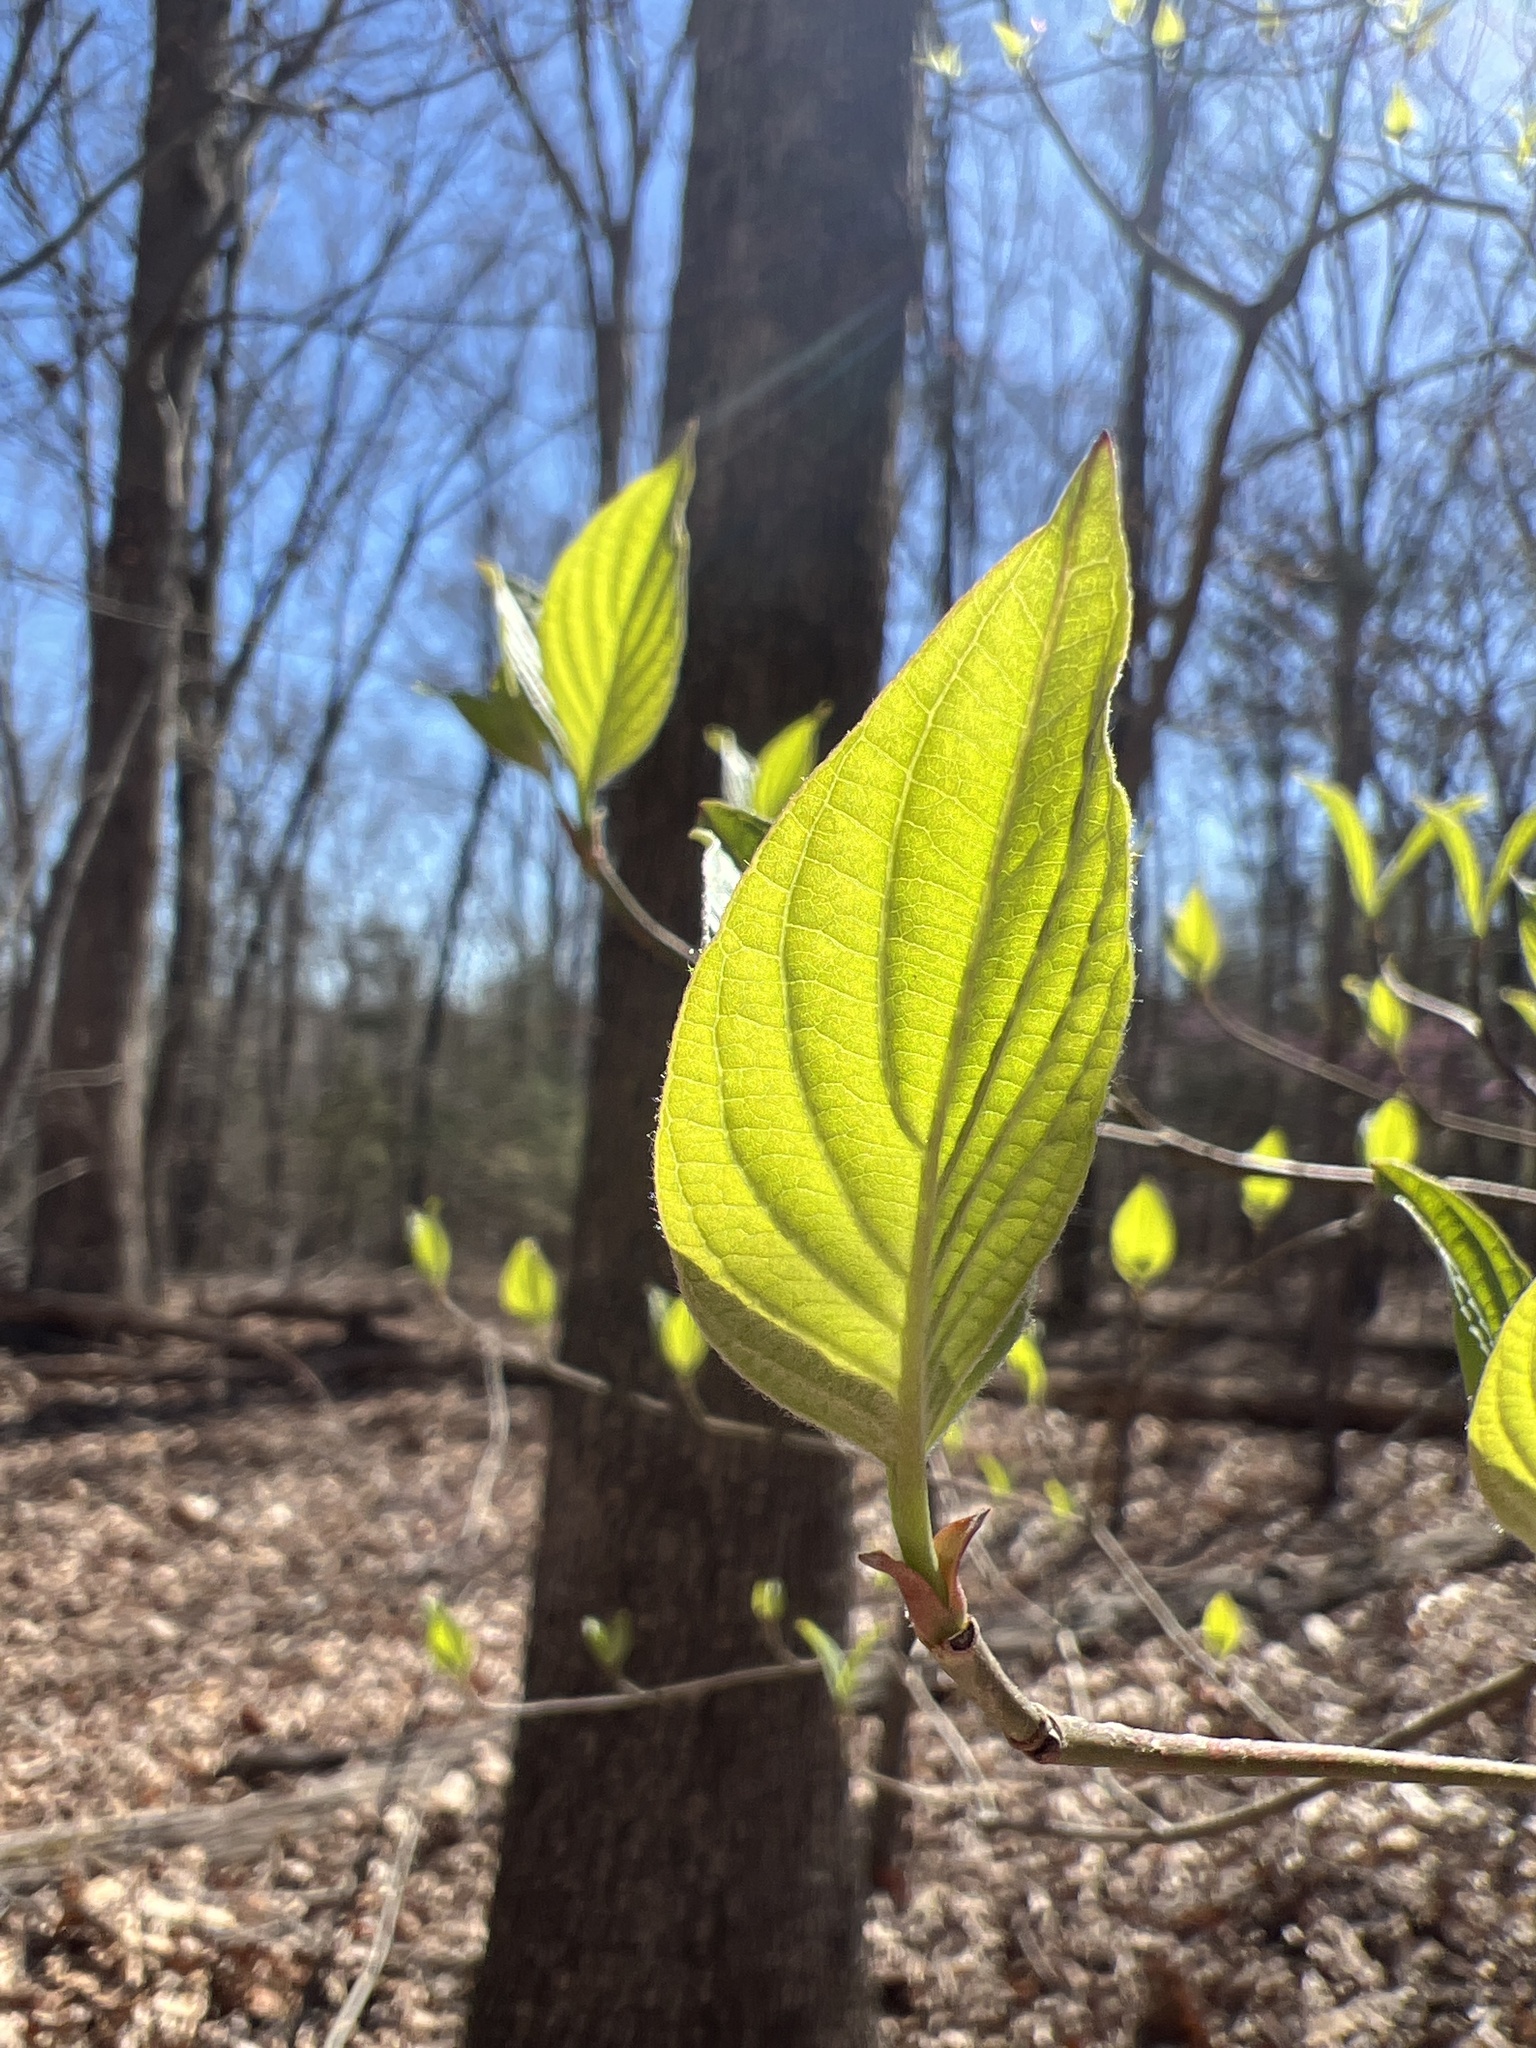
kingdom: Plantae
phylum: Tracheophyta
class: Magnoliopsida
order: Cornales
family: Cornaceae
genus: Cornus
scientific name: Cornus florida
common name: Flowering dogwood
